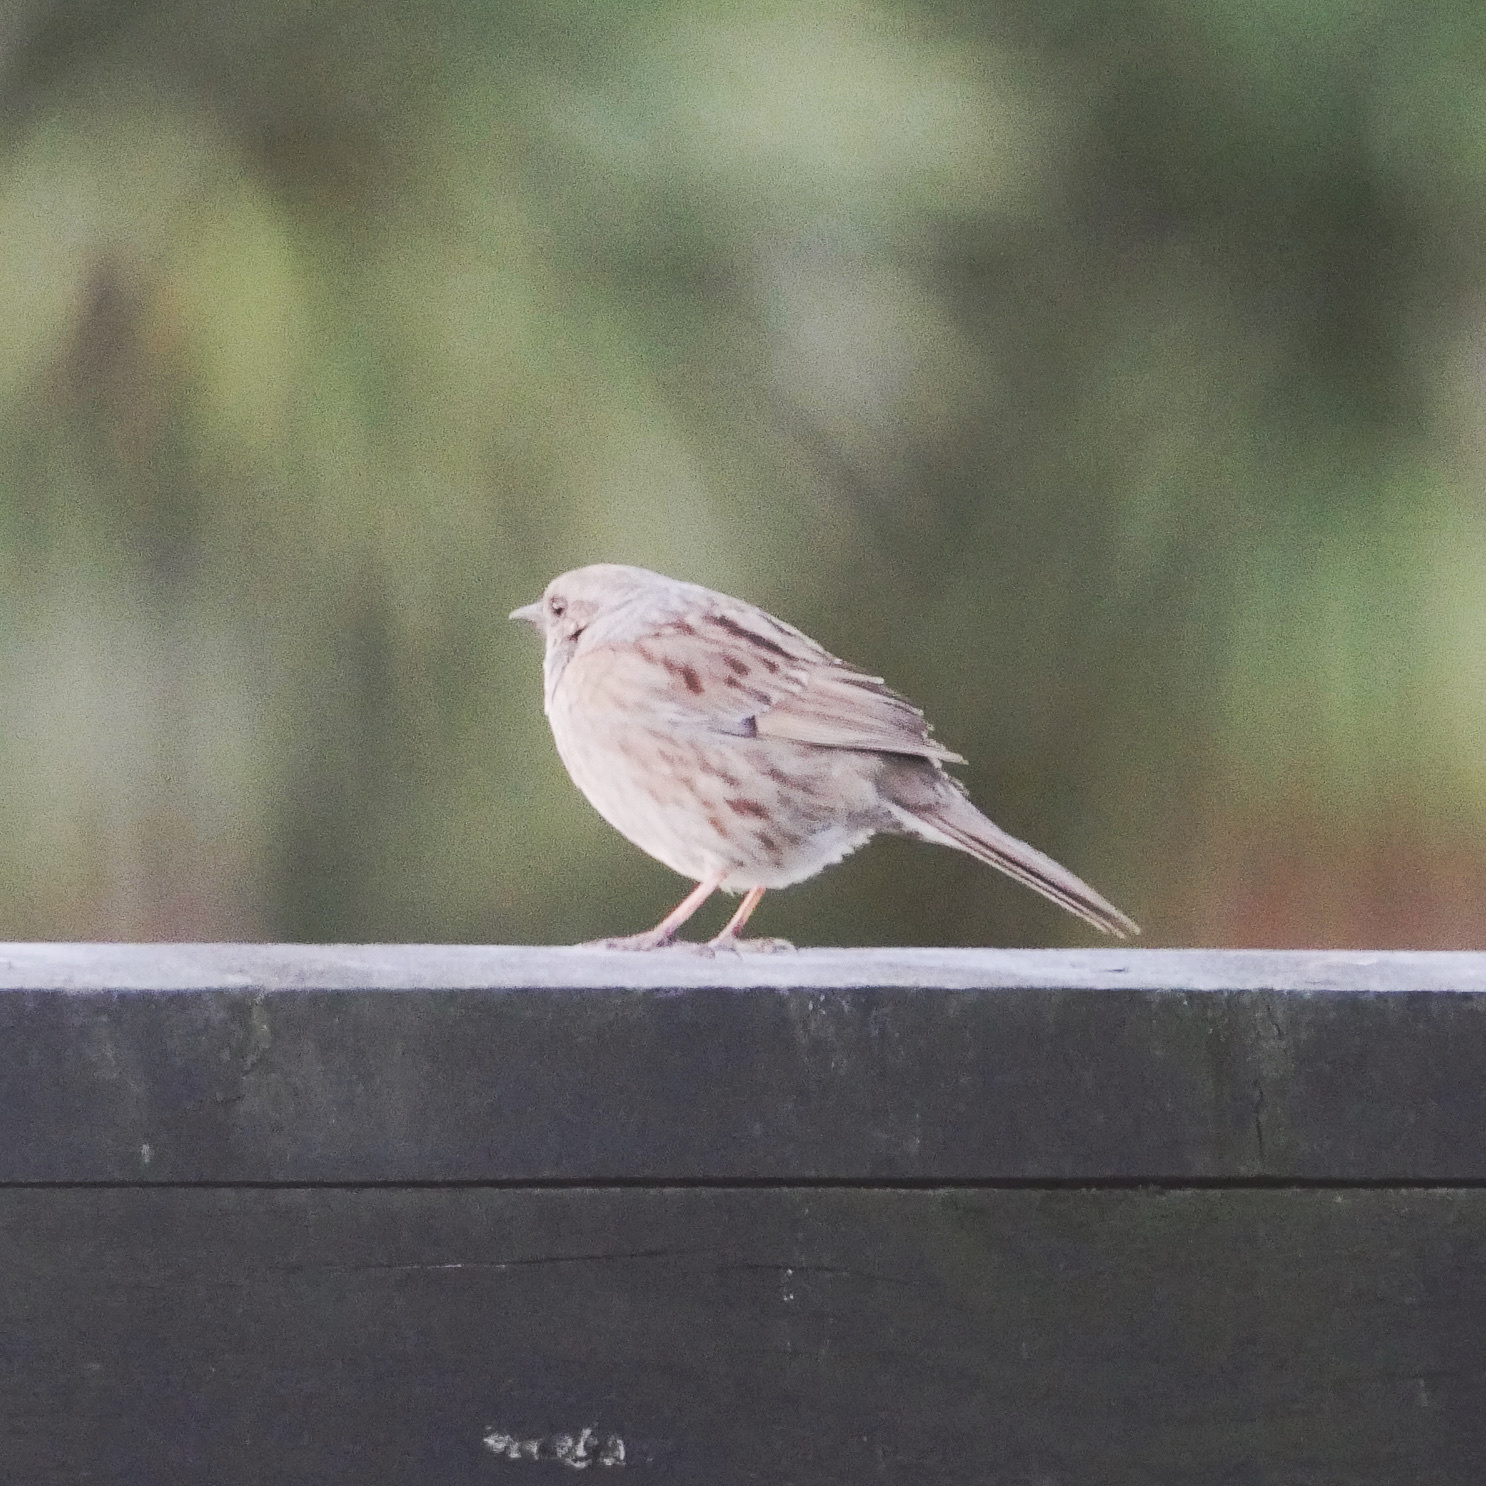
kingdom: Animalia
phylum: Chordata
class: Aves
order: Passeriformes
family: Prunellidae
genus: Prunella
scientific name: Prunella modularis
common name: Dunnock
